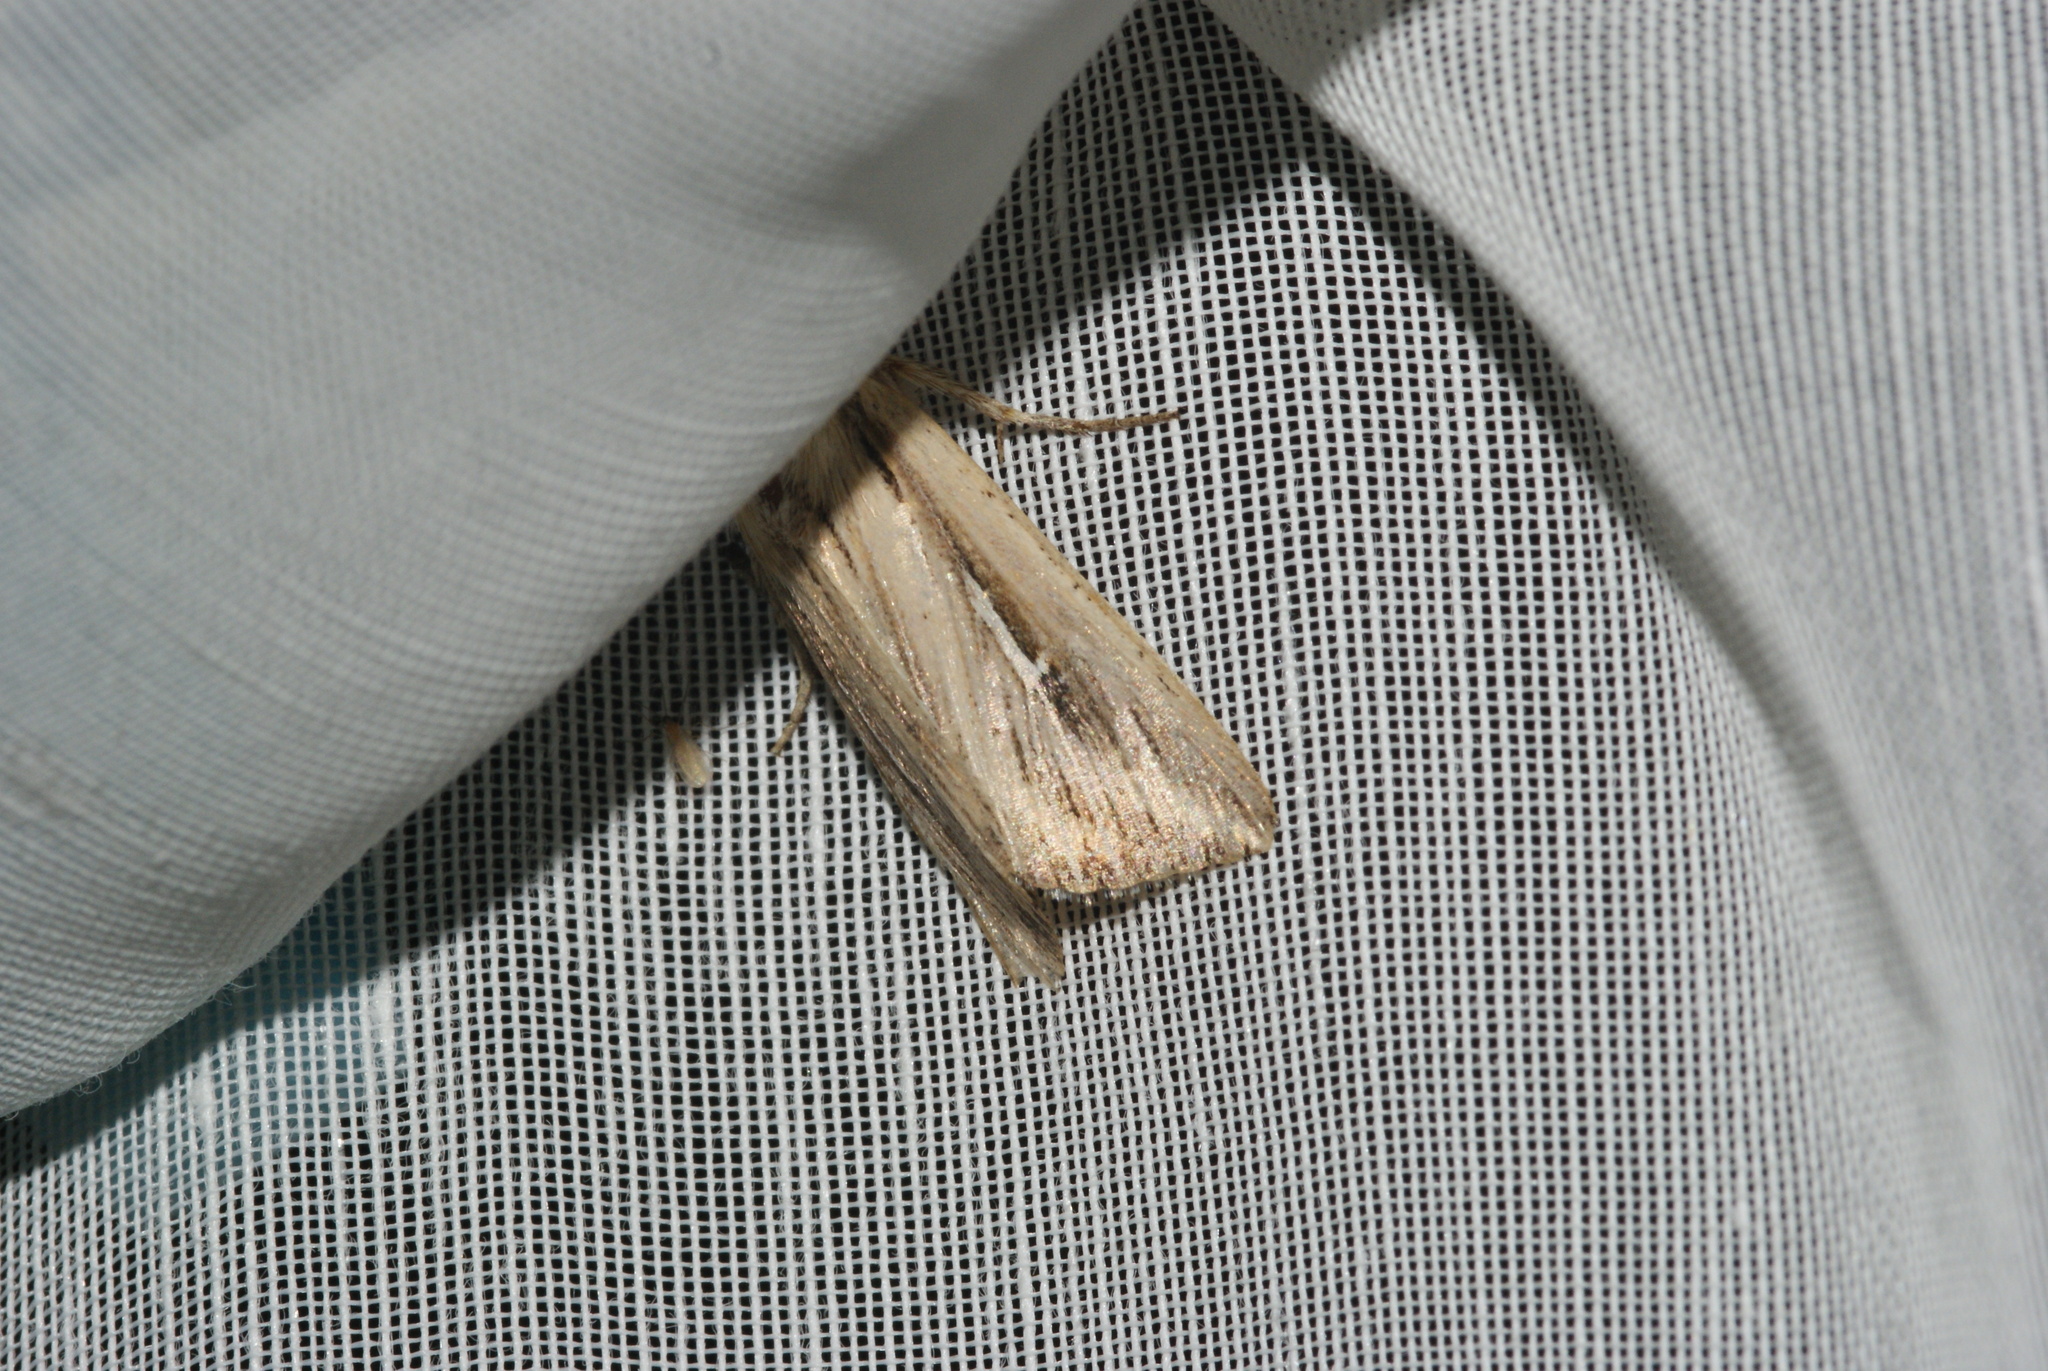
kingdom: Animalia
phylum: Arthropoda
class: Insecta
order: Lepidoptera
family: Noctuidae
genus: Mythimna
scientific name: Mythimna l-album
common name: L-album wainscot
